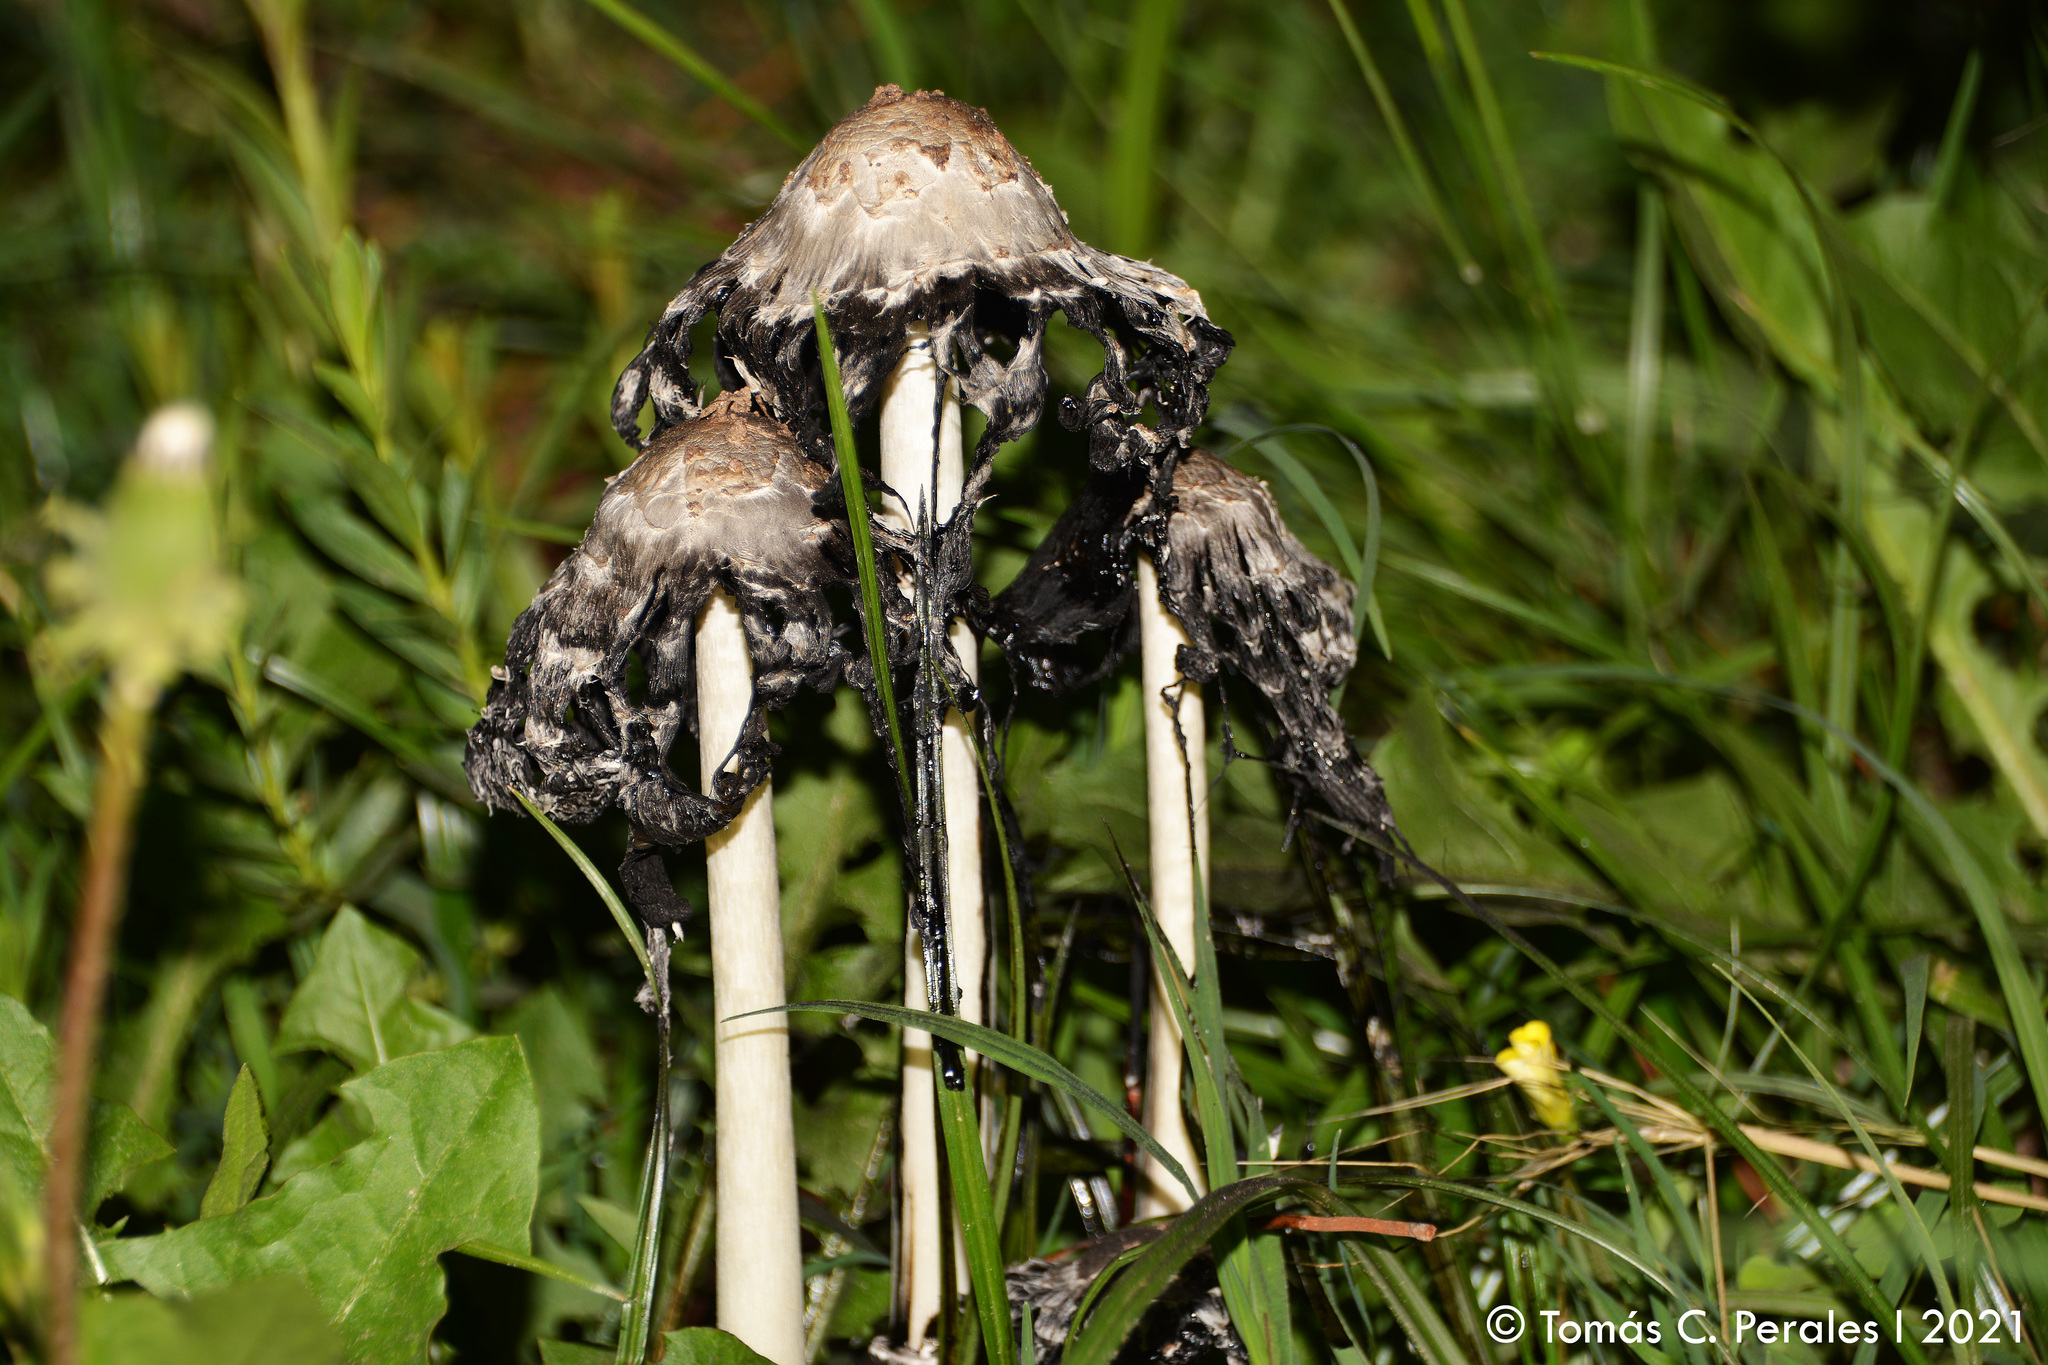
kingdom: Fungi
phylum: Basidiomycota
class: Agaricomycetes
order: Agaricales
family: Agaricaceae
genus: Coprinus
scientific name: Coprinus comatus
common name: Lawyer's wig
